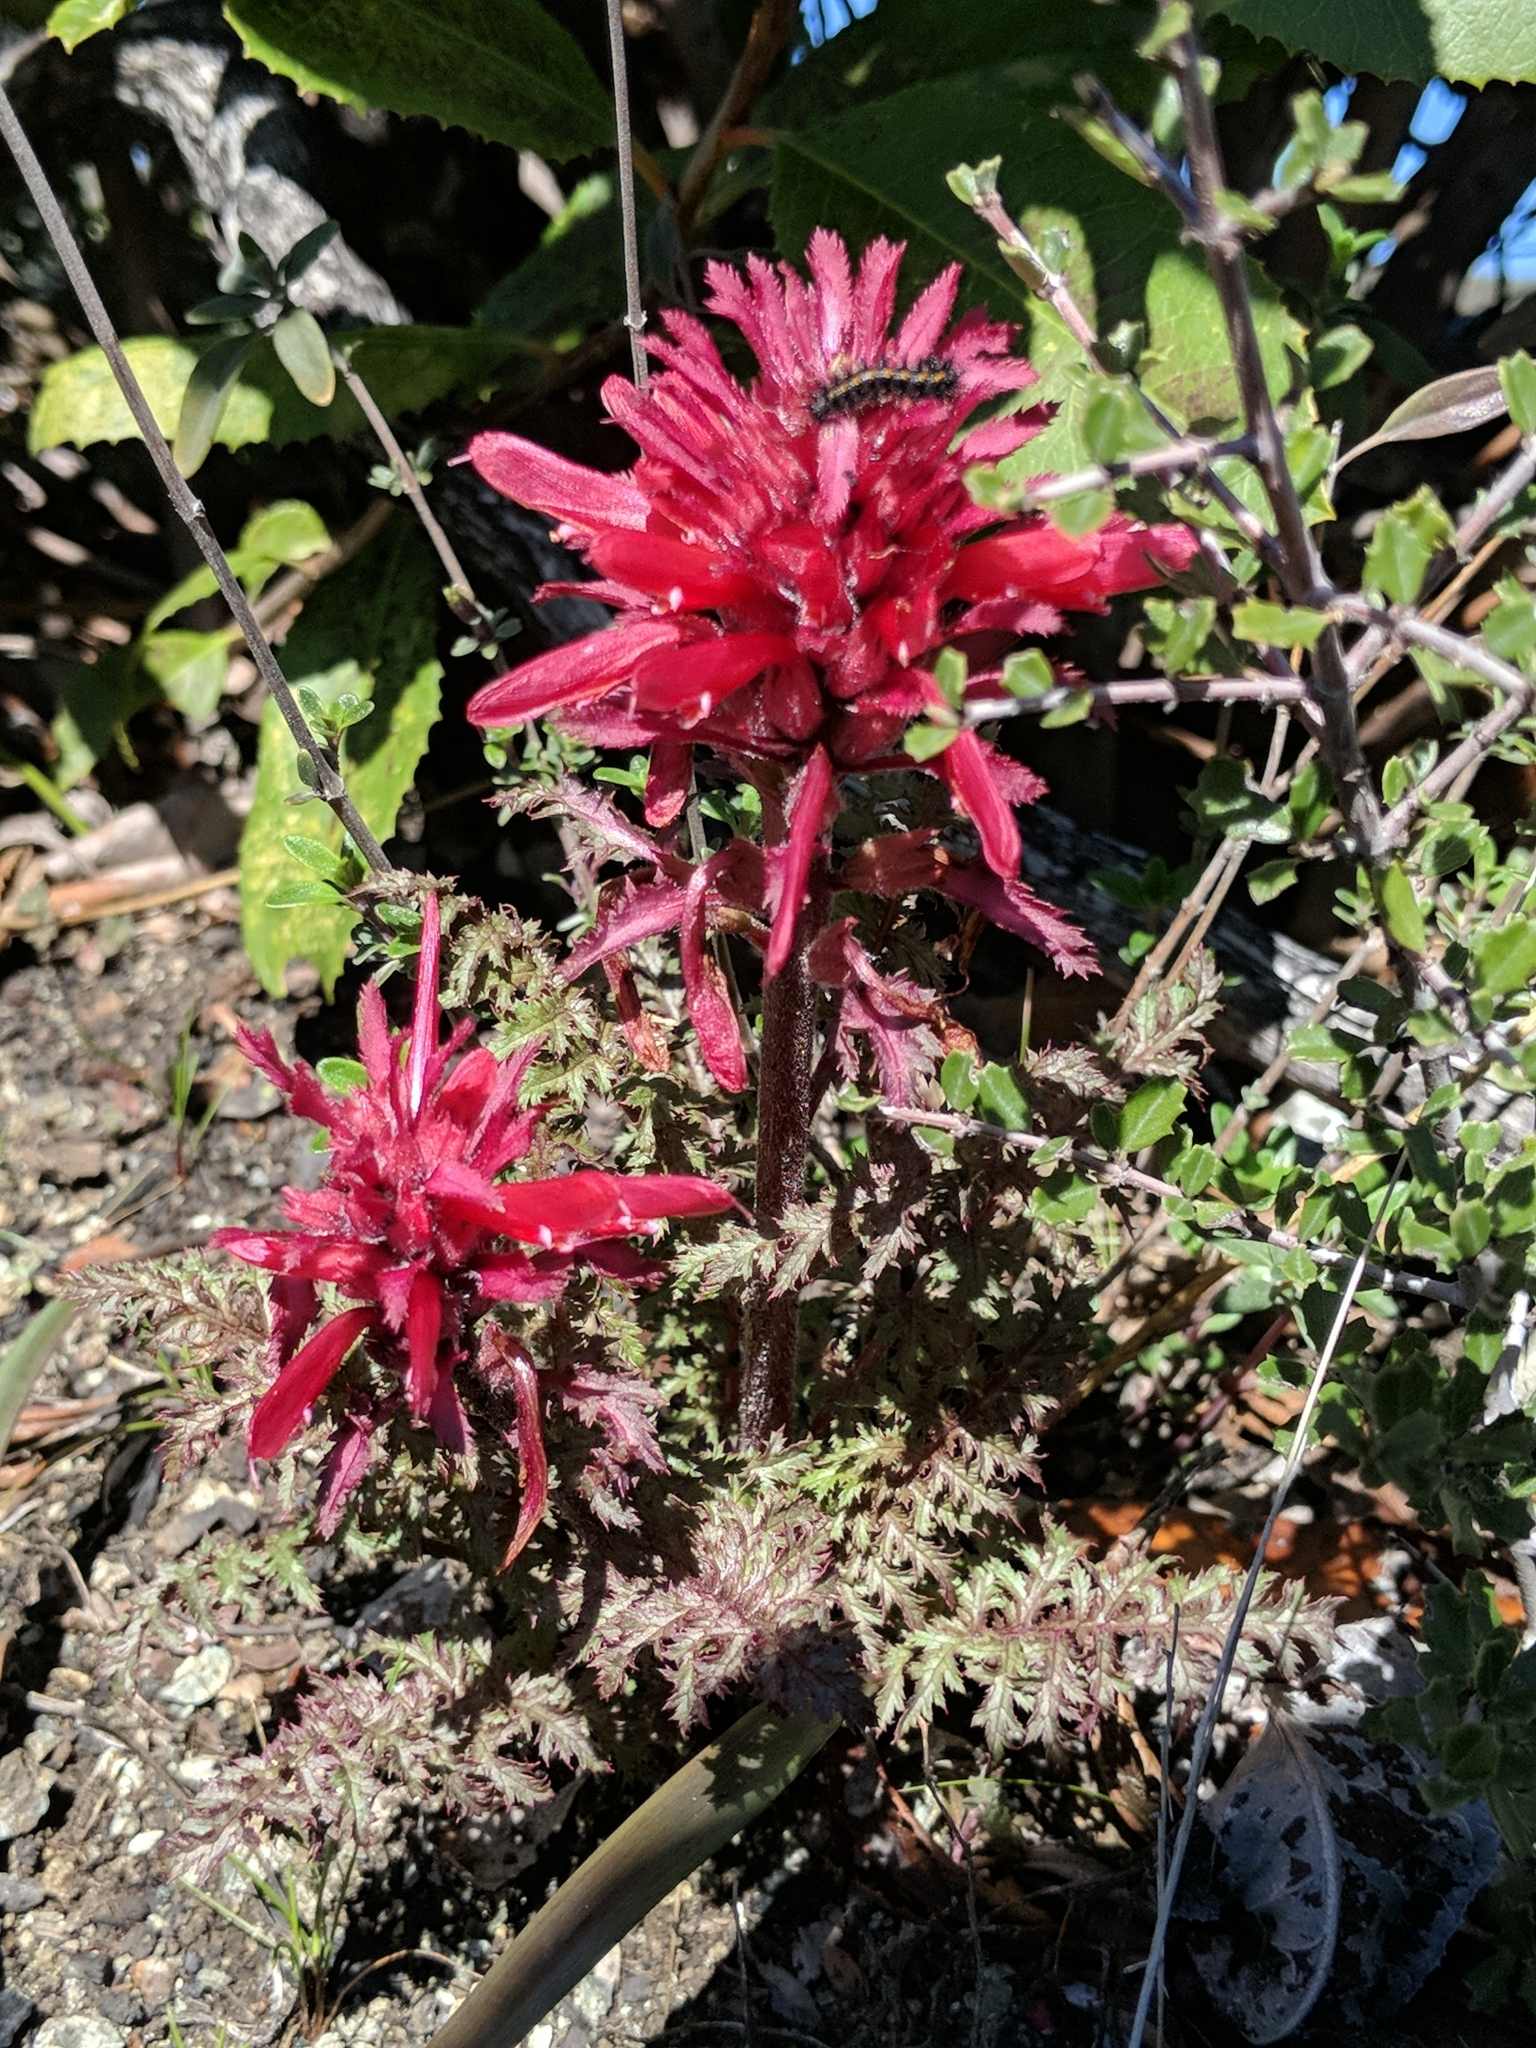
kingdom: Plantae
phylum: Tracheophyta
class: Magnoliopsida
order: Lamiales
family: Orobanchaceae
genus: Pedicularis
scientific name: Pedicularis densiflora
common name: Indian warrior
